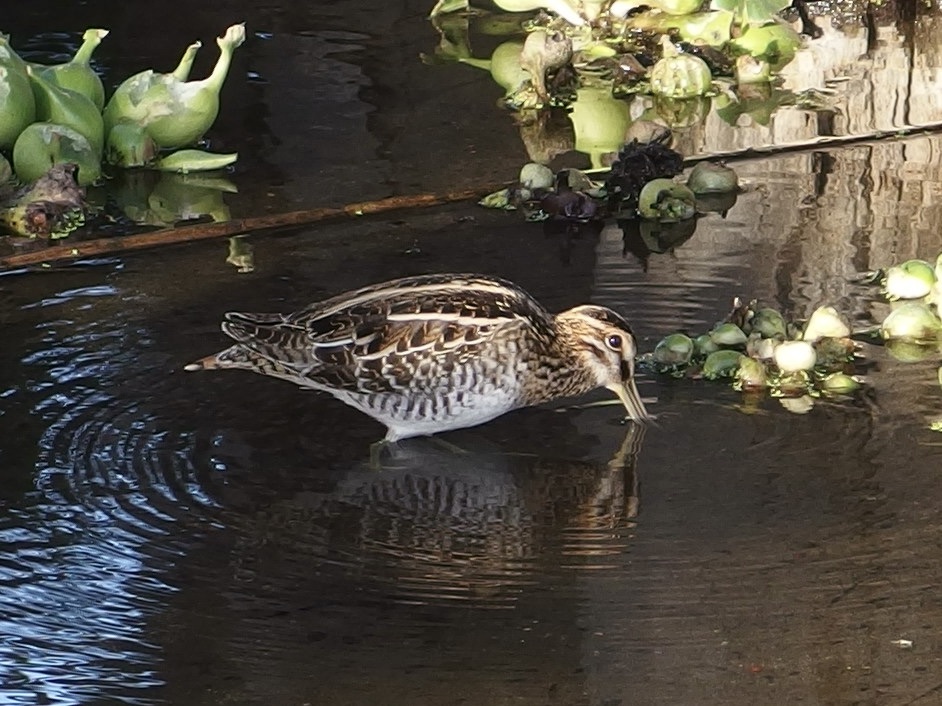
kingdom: Animalia
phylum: Chordata
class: Aves
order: Charadriiformes
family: Scolopacidae
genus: Gallinago
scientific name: Gallinago delicata
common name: Wilson's snipe
